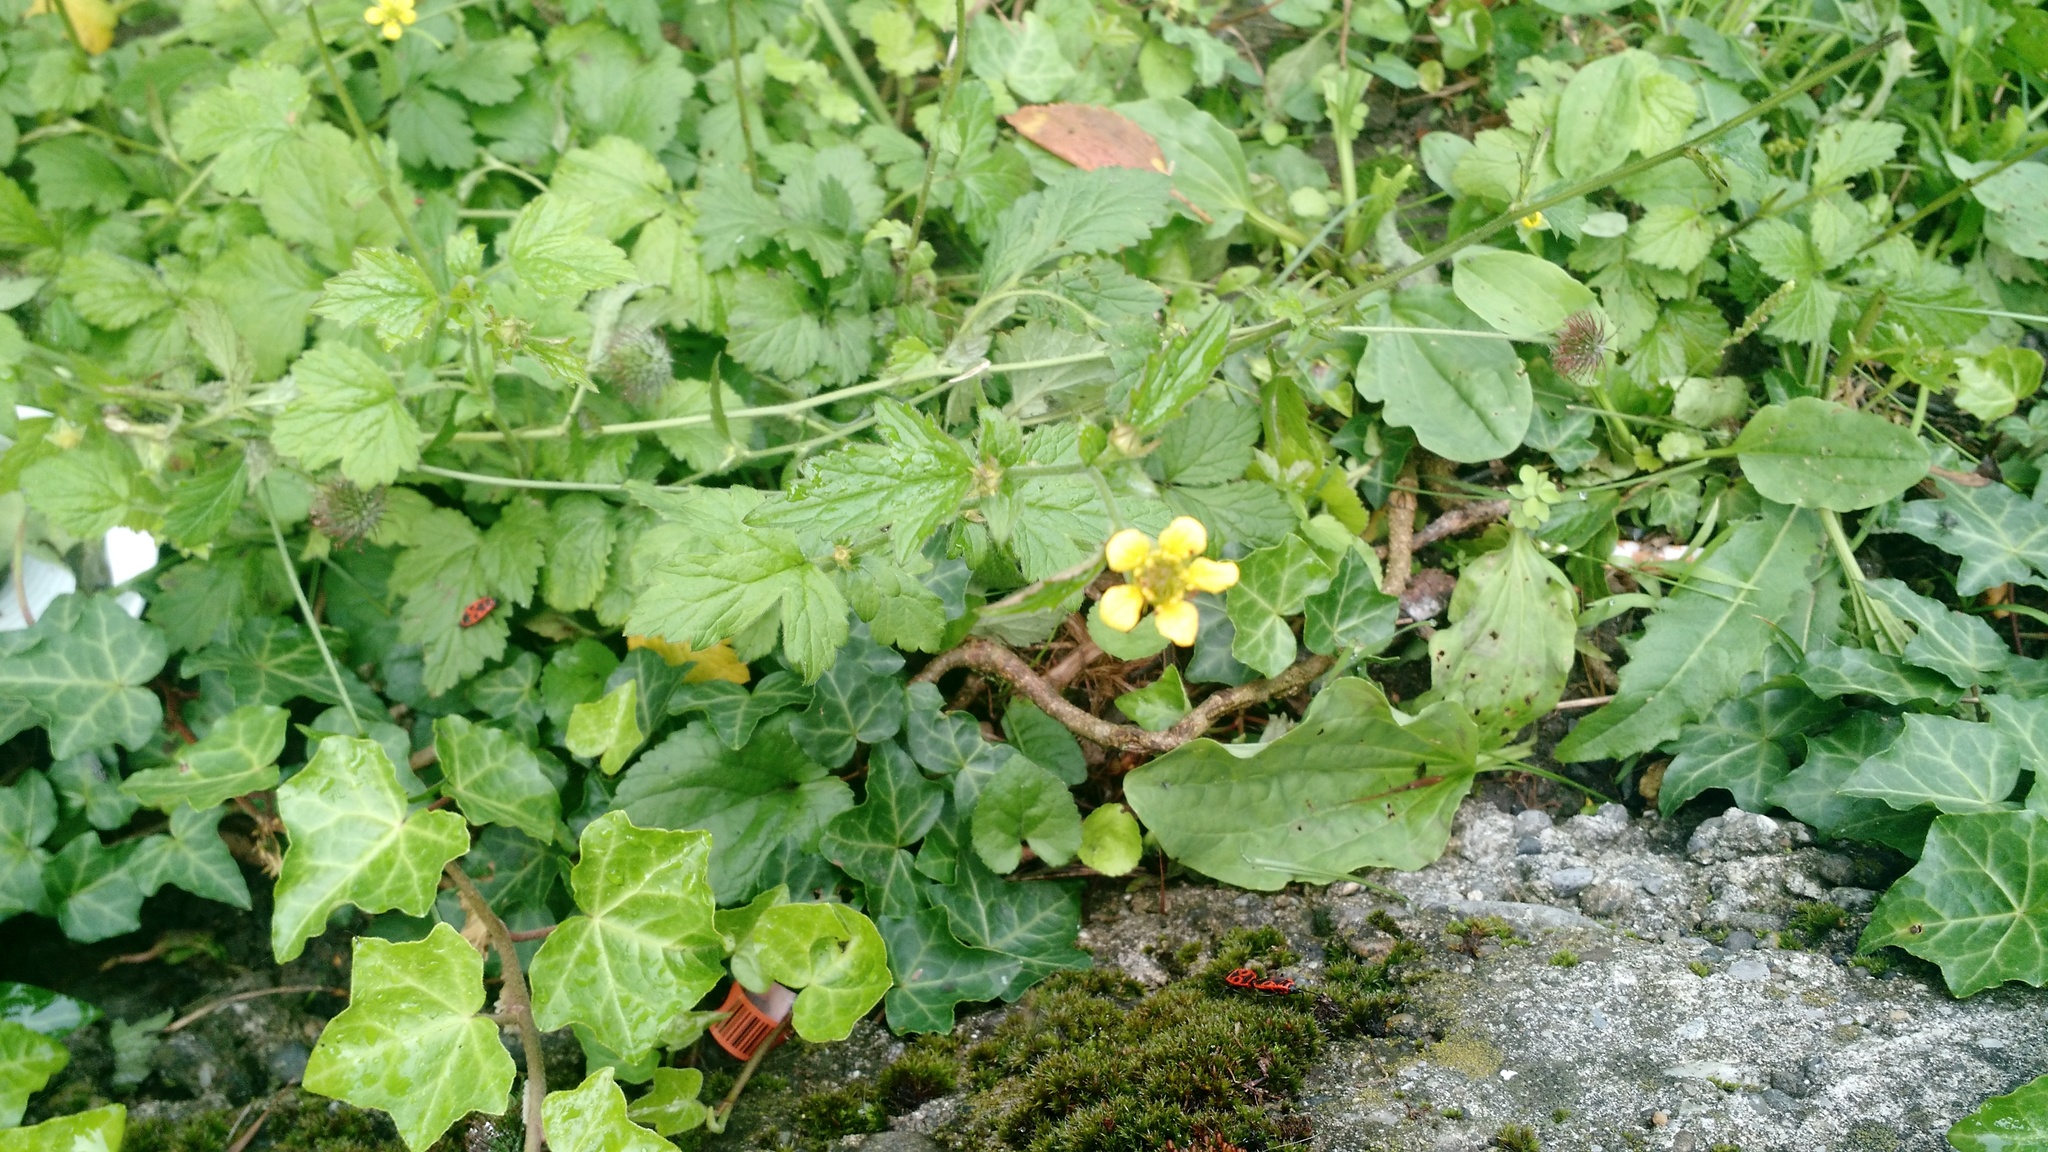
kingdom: Plantae
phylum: Tracheophyta
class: Magnoliopsida
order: Rosales
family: Rosaceae
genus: Geum
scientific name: Geum urbanum
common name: Wood avens
